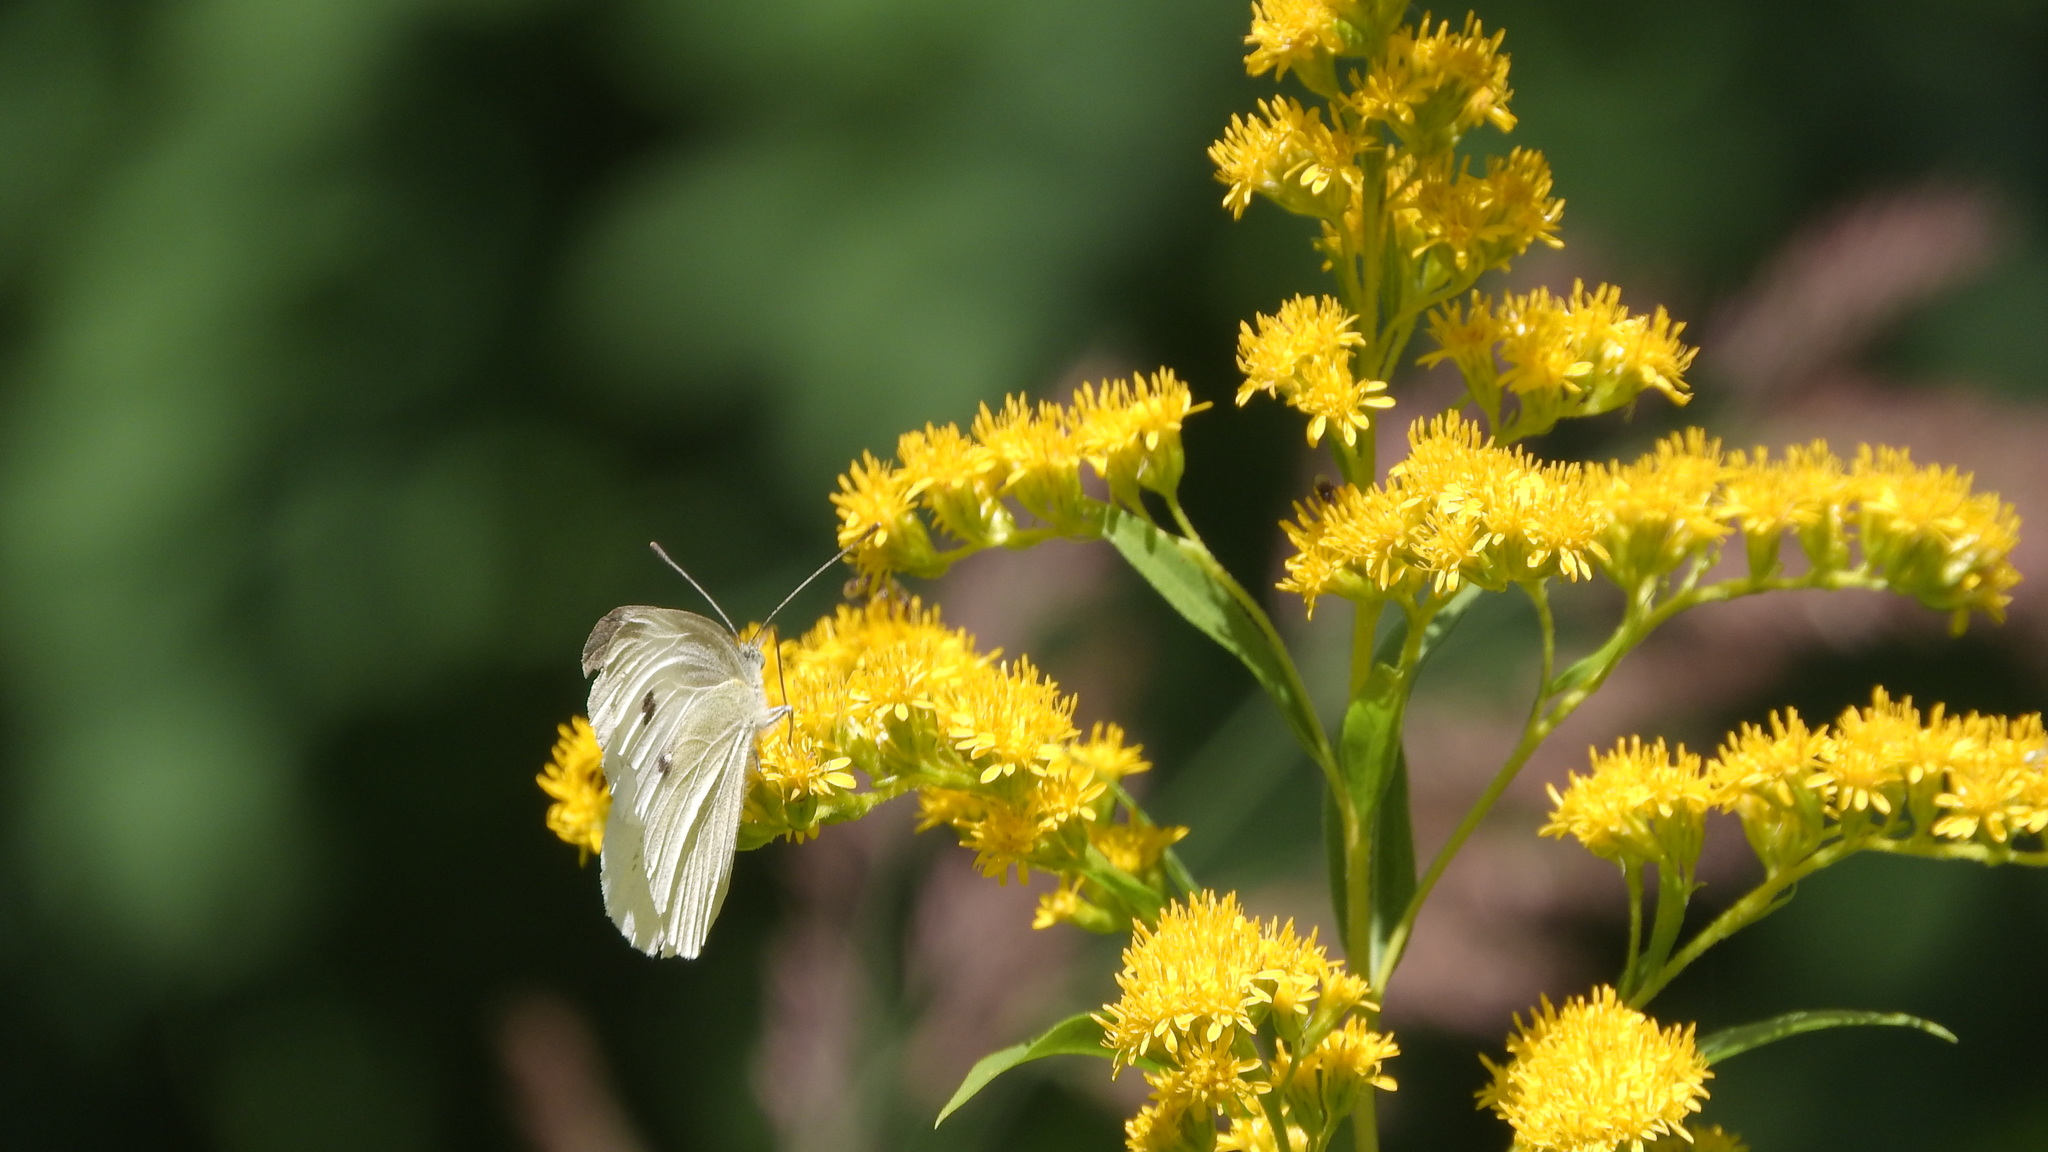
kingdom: Animalia
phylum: Arthropoda
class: Insecta
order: Lepidoptera
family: Pieridae
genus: Pieris
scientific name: Pieris rapae
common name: Small white
